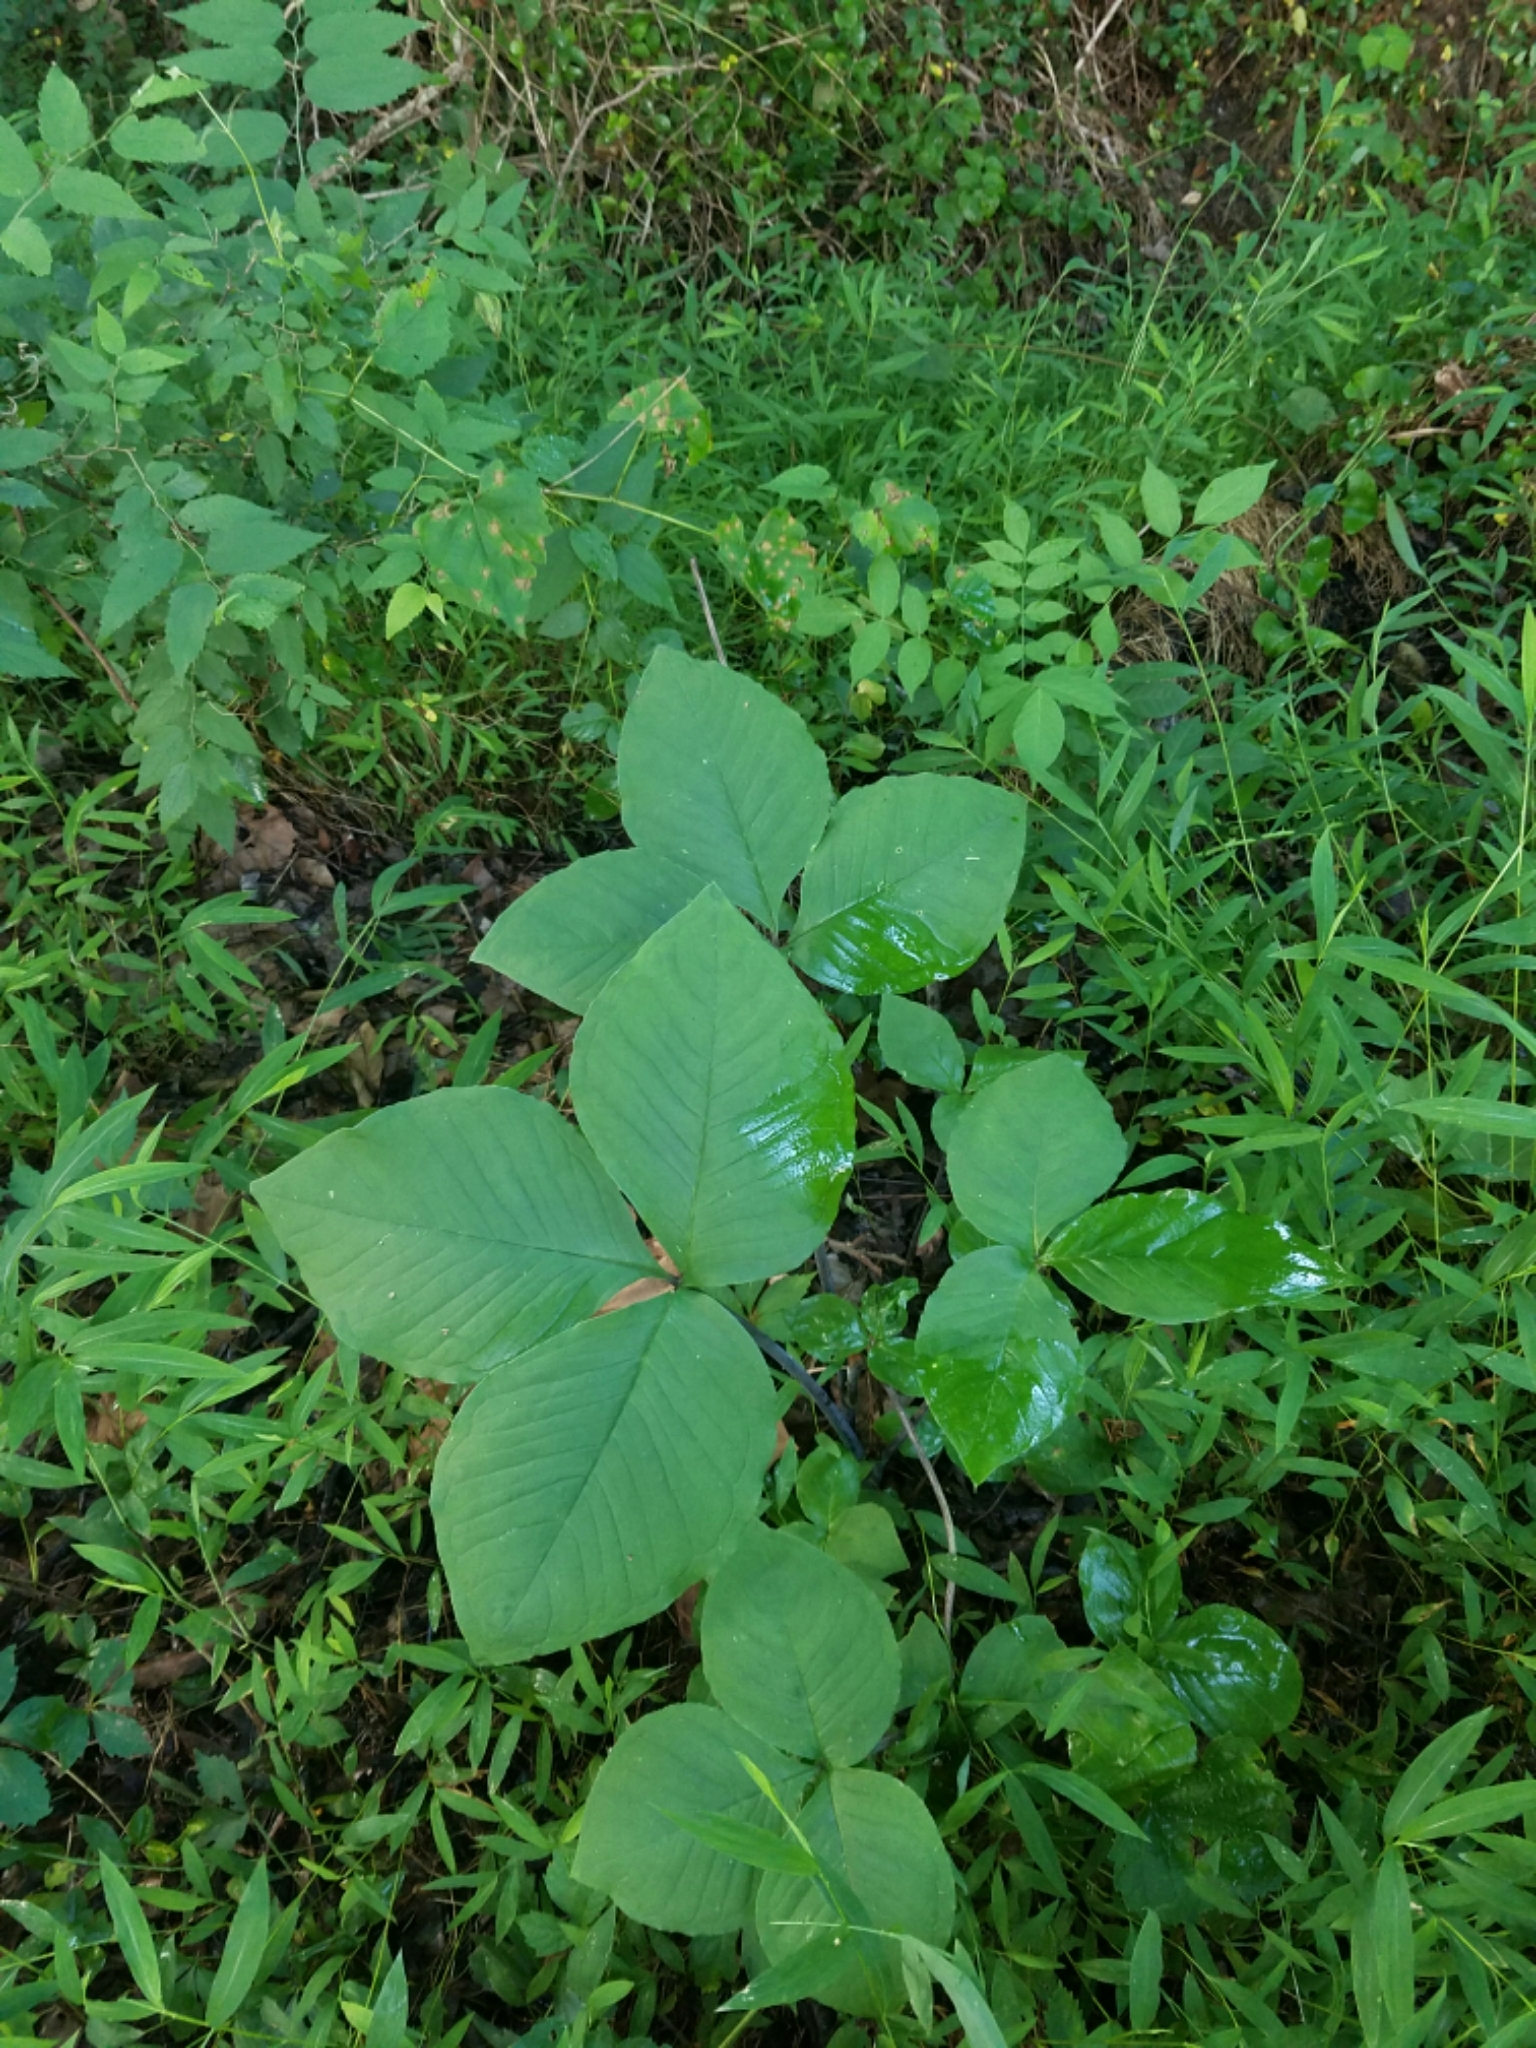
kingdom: Plantae
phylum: Tracheophyta
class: Liliopsida
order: Alismatales
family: Araceae
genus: Arisaema
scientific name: Arisaema triphyllum
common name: Jack-in-the-pulpit
